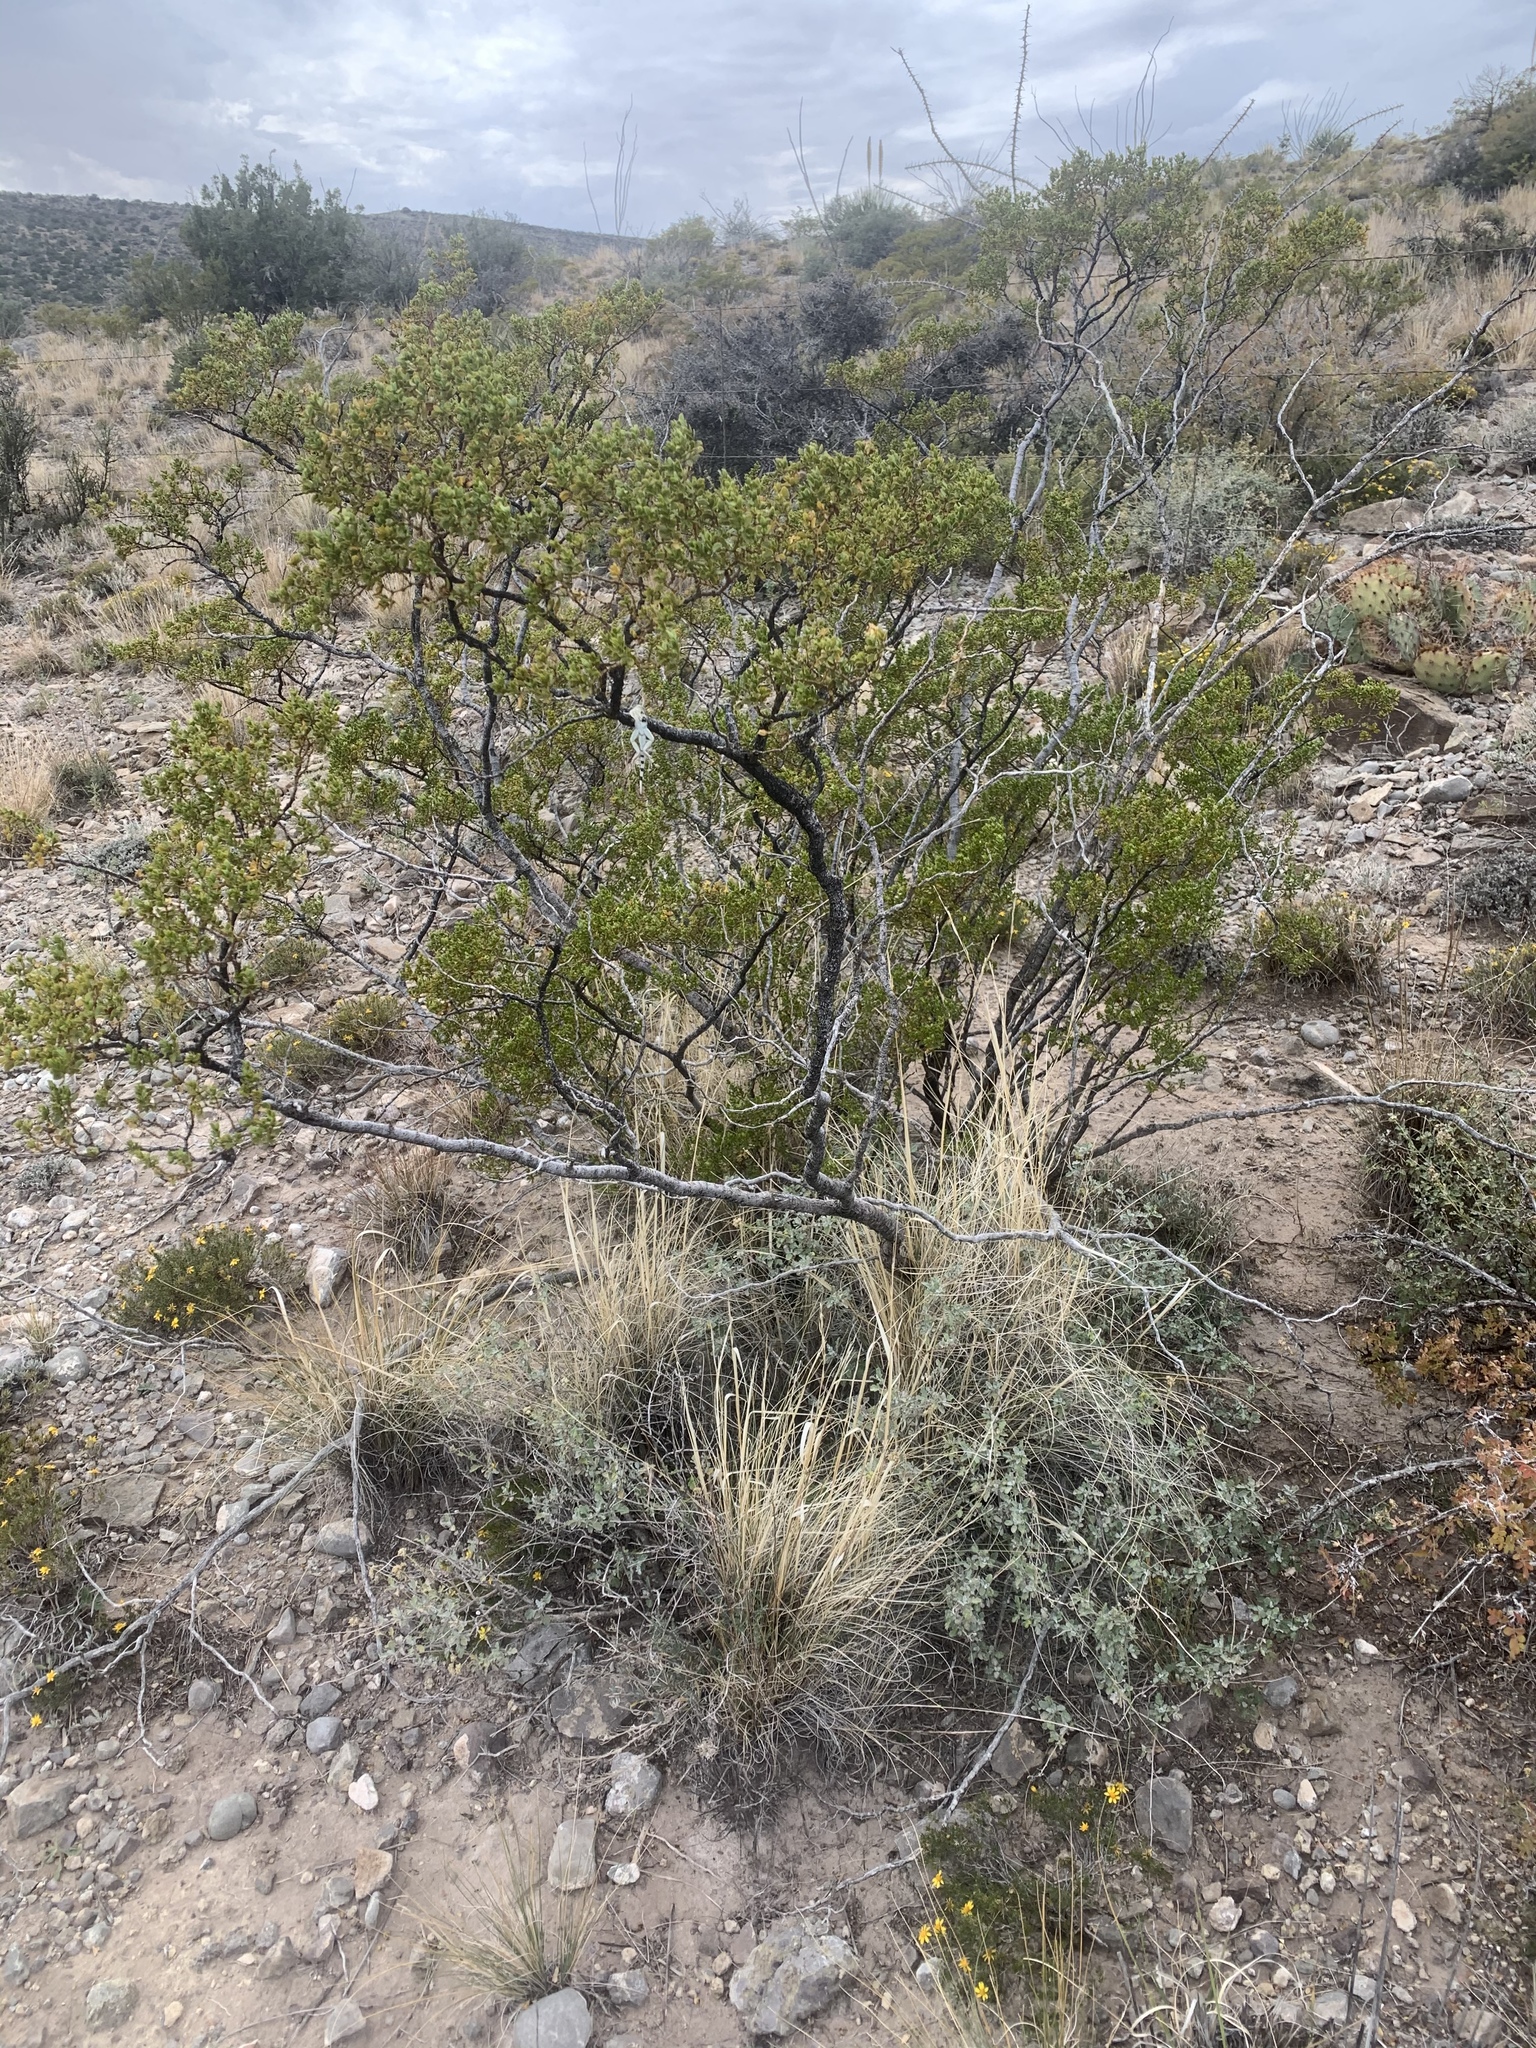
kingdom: Plantae
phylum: Tracheophyta
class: Magnoliopsida
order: Zygophyllales
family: Zygophyllaceae
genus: Larrea
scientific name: Larrea tridentata
